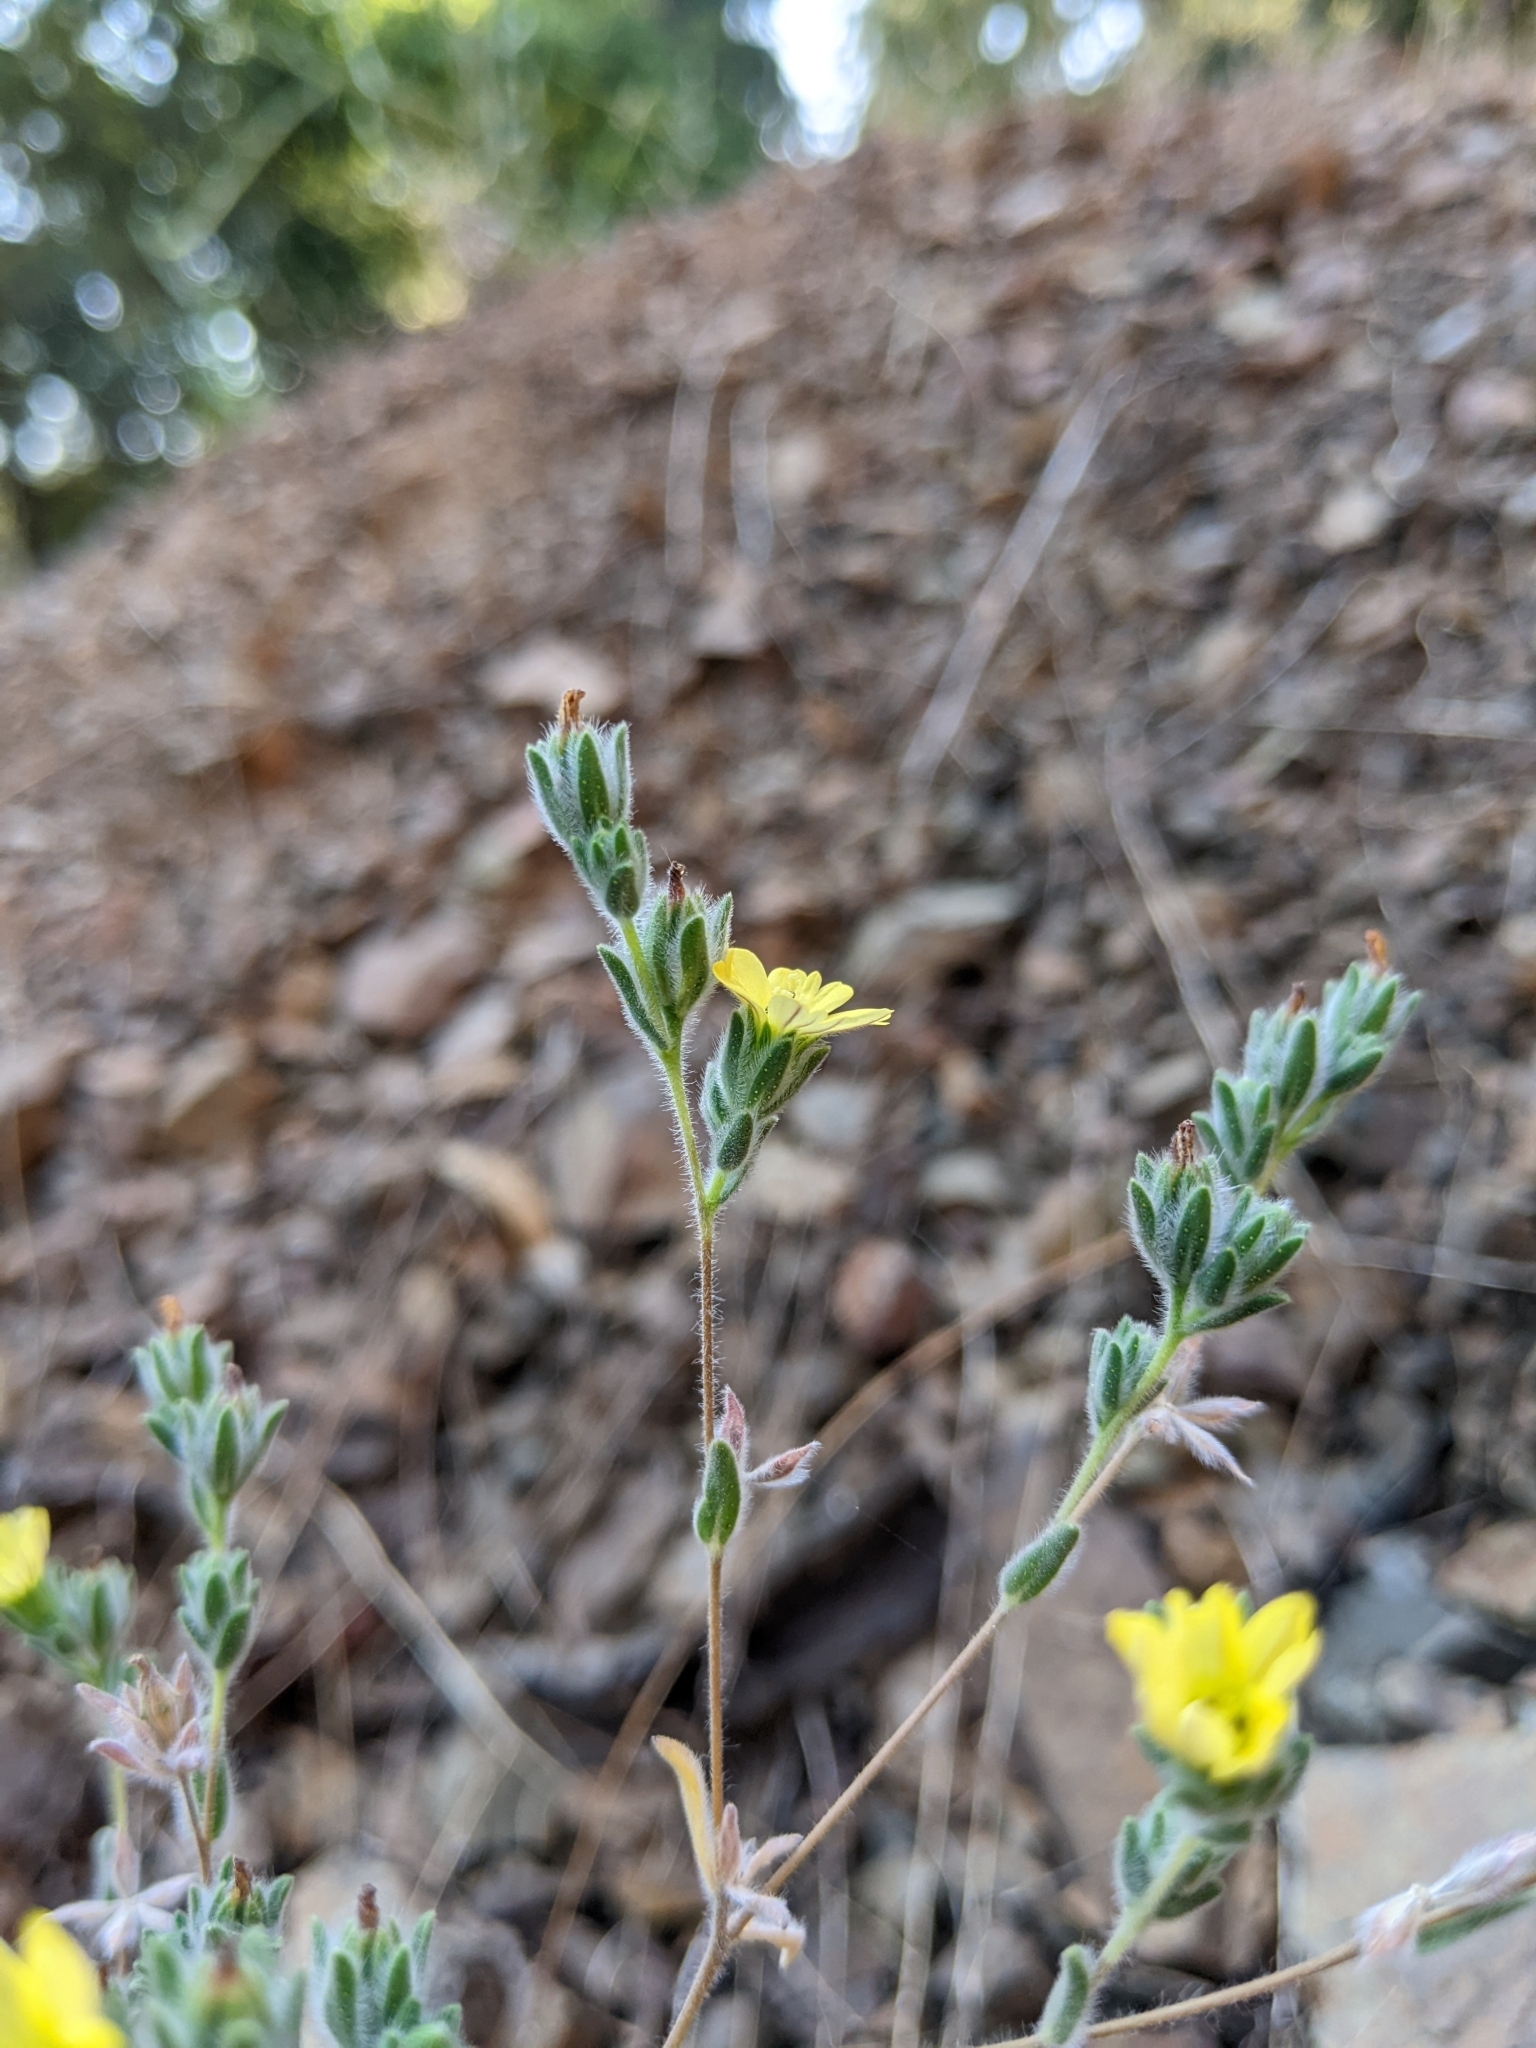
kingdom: Plantae
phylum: Tracheophyta
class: Magnoliopsida
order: Asterales
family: Asteraceae
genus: Lagophylla
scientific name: Lagophylla ramosissima
